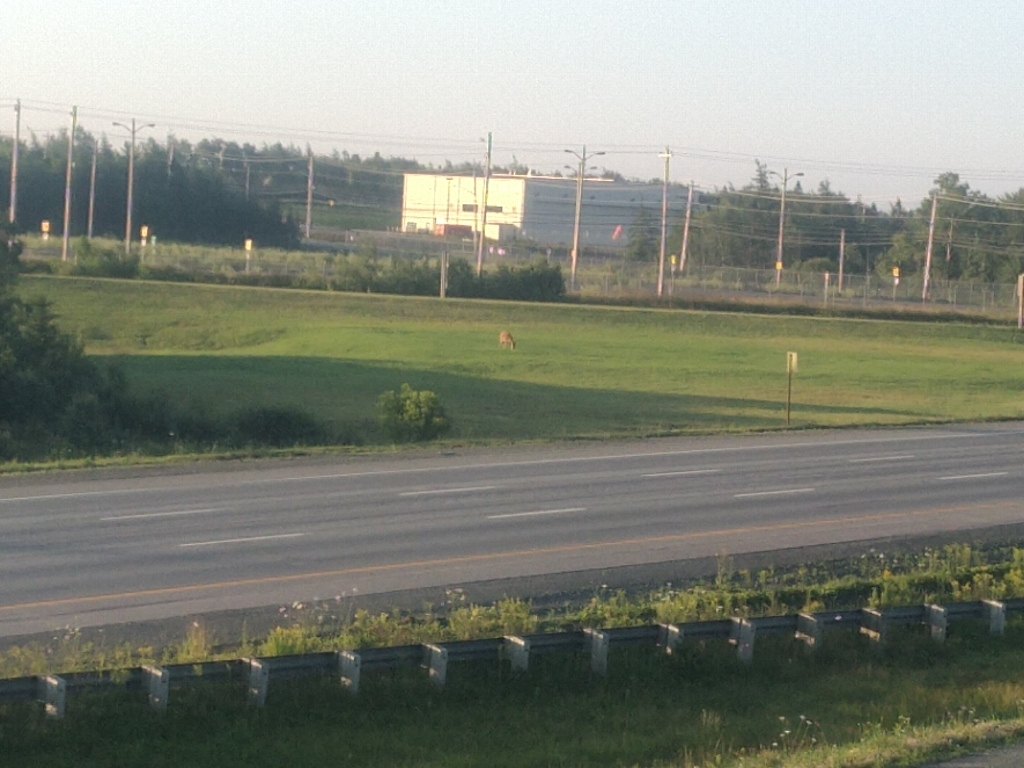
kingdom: Animalia
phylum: Chordata
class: Mammalia
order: Artiodactyla
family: Cervidae
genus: Odocoileus
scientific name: Odocoileus virginianus
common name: White-tailed deer
